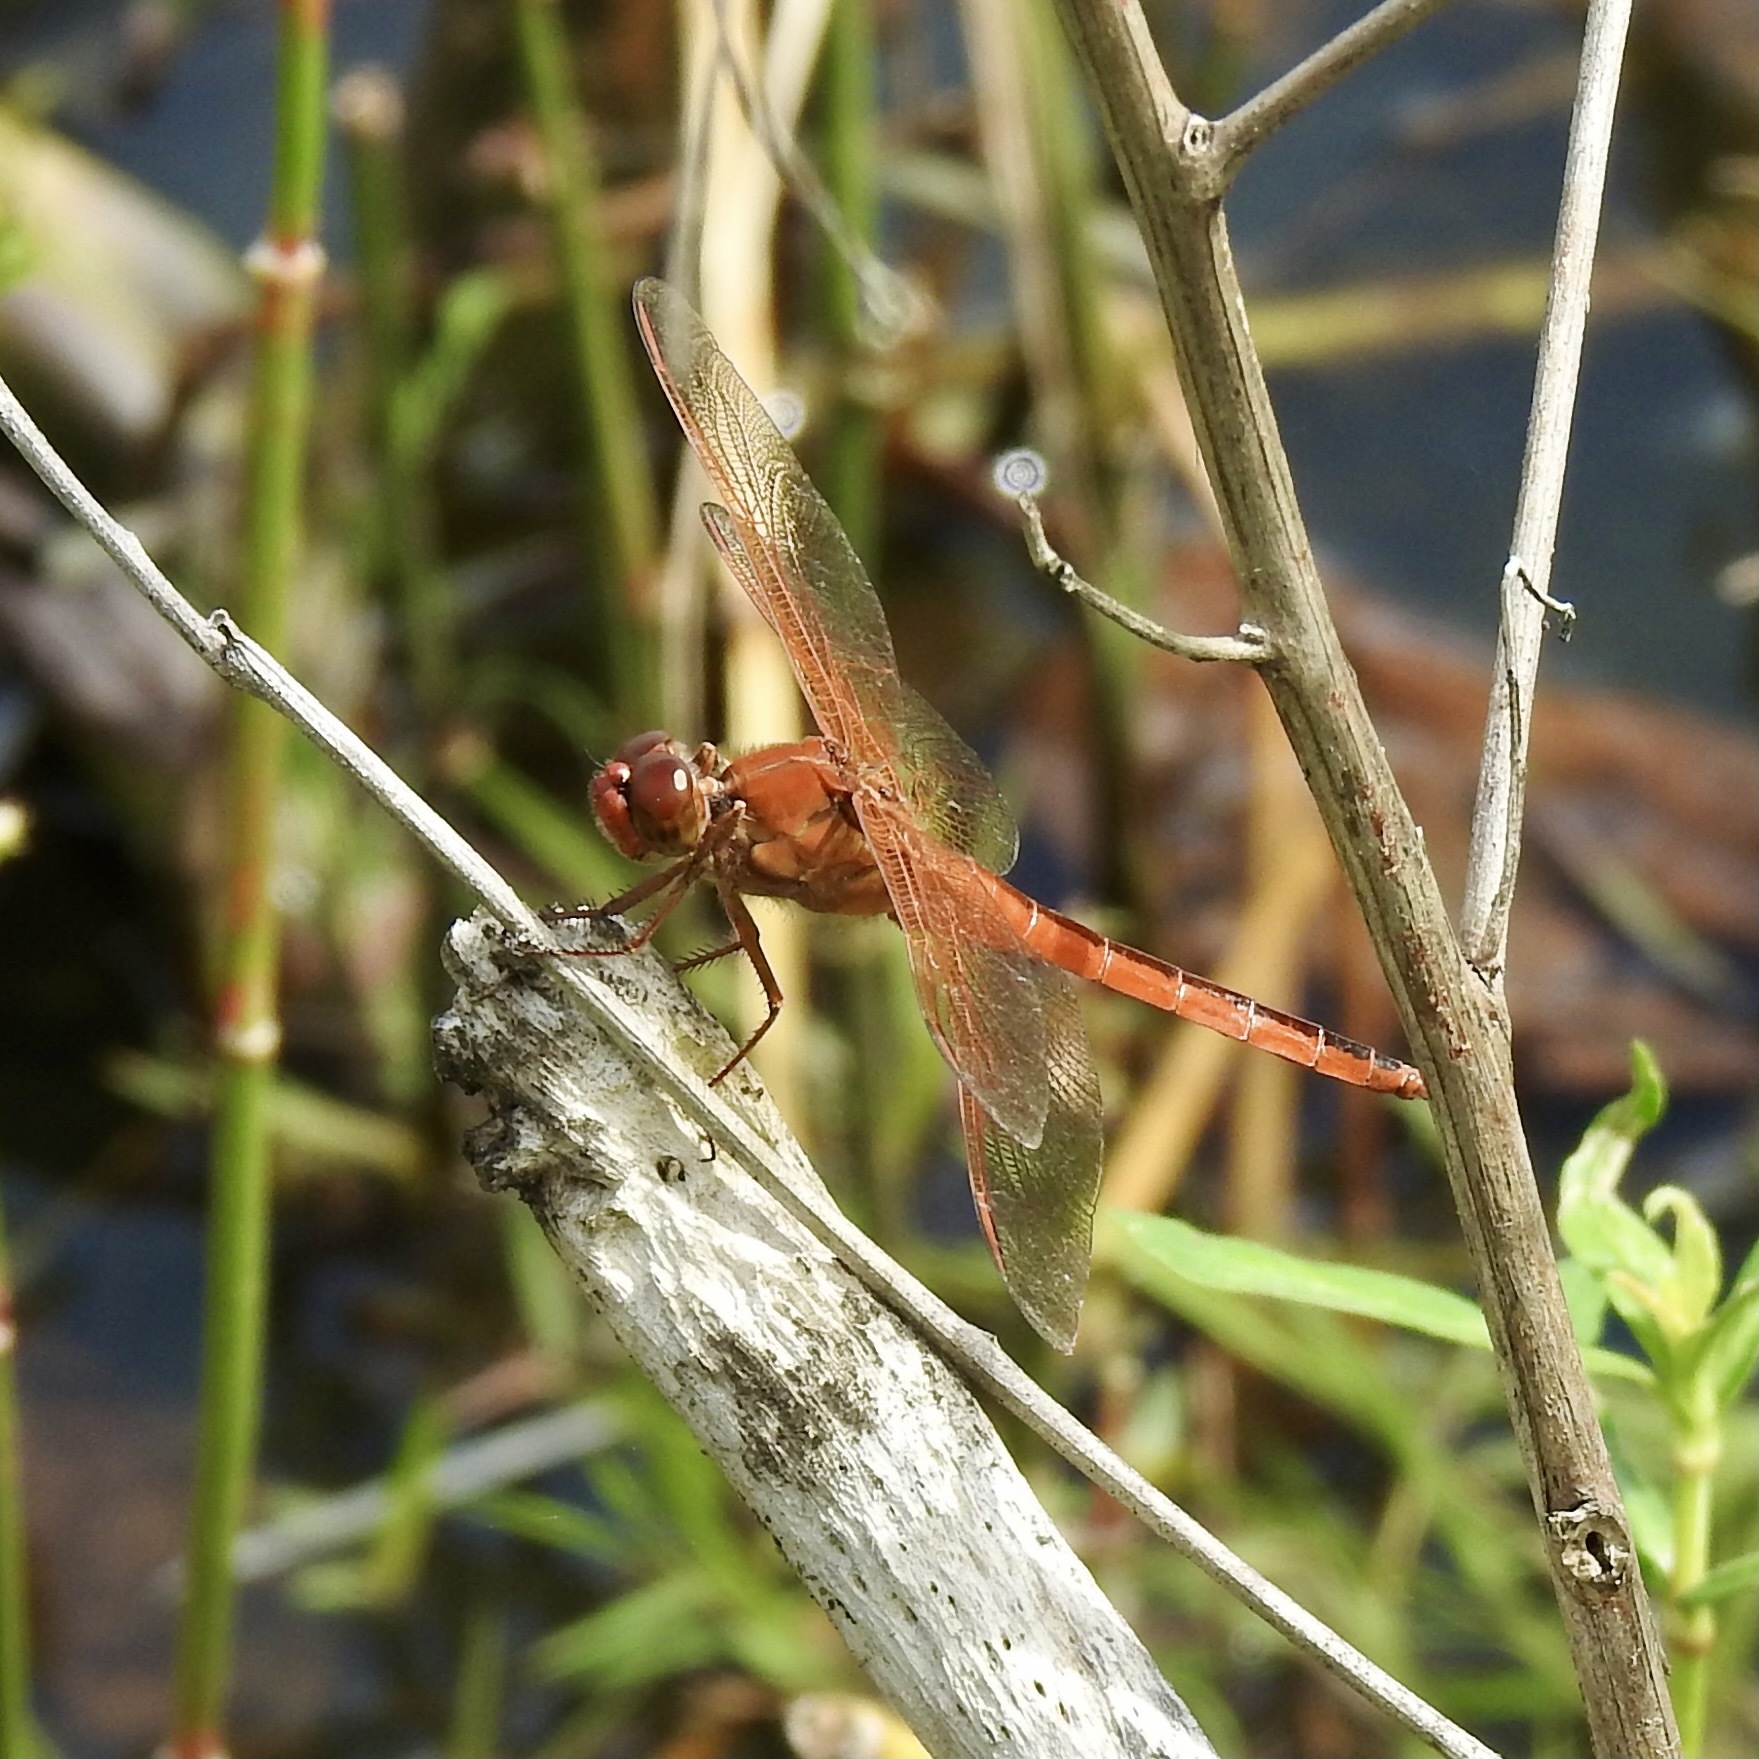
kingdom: Animalia
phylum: Arthropoda
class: Insecta
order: Odonata
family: Libellulidae
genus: Libellula
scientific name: Libellula needhami
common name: Needham's skimmer
